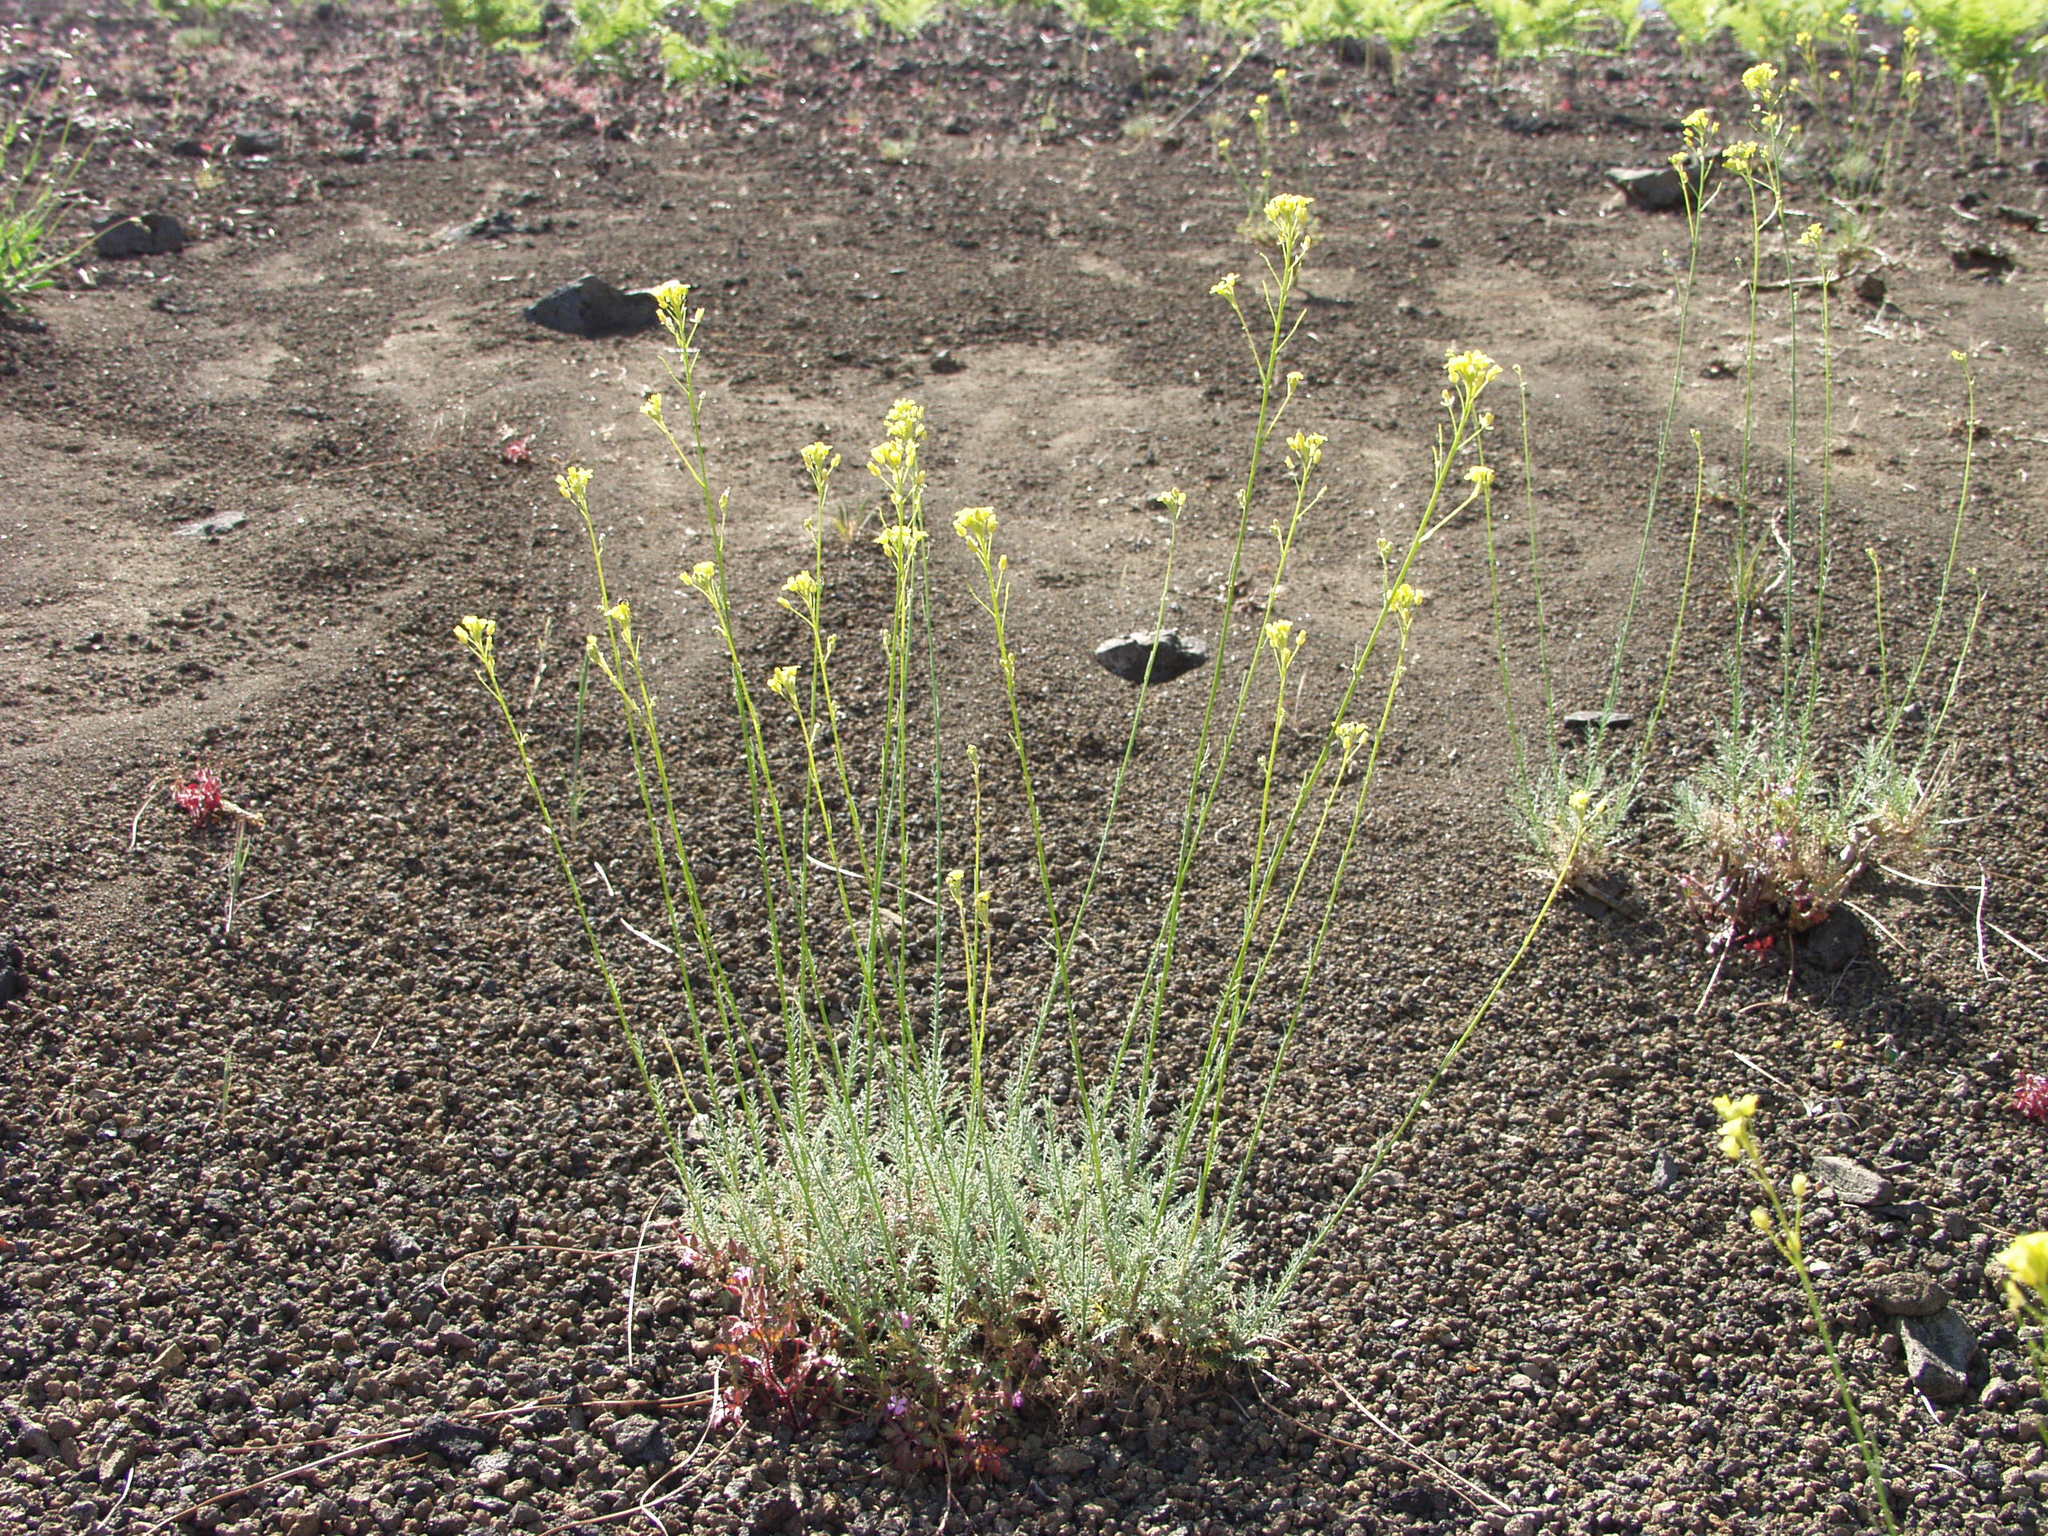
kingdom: Plantae
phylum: Tracheophyta
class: Magnoliopsida
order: Brassicales
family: Brassicaceae
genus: Descurainia
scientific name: Descurainia gilva
